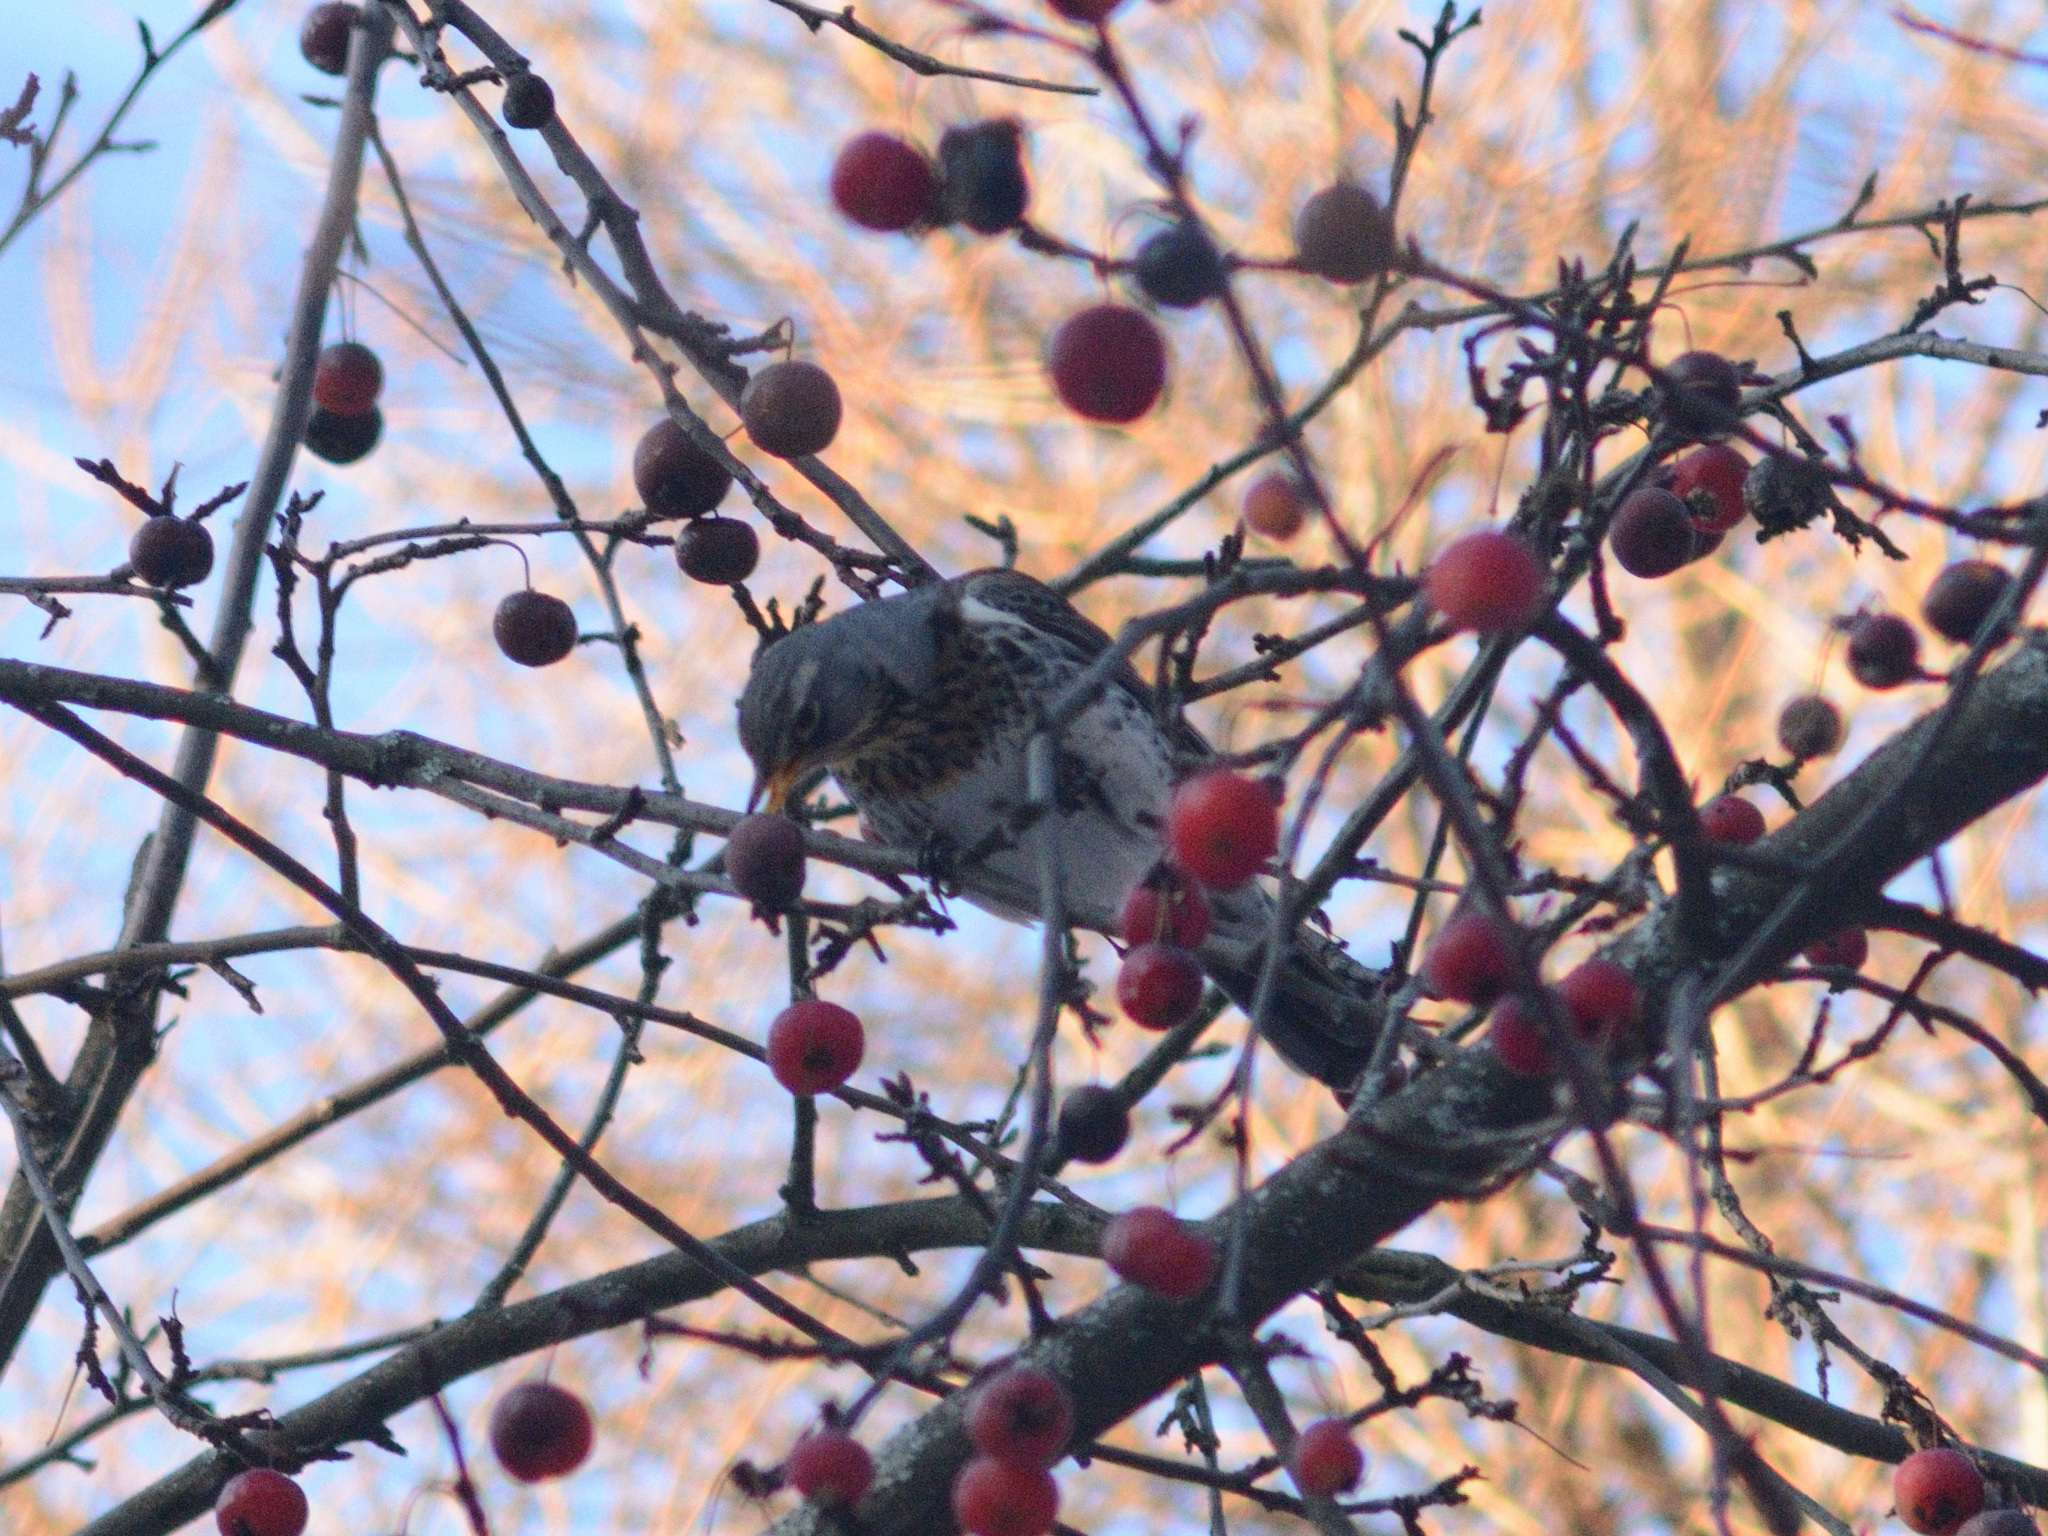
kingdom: Animalia
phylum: Chordata
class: Aves
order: Passeriformes
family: Turdidae
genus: Turdus
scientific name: Turdus pilaris
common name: Fieldfare
